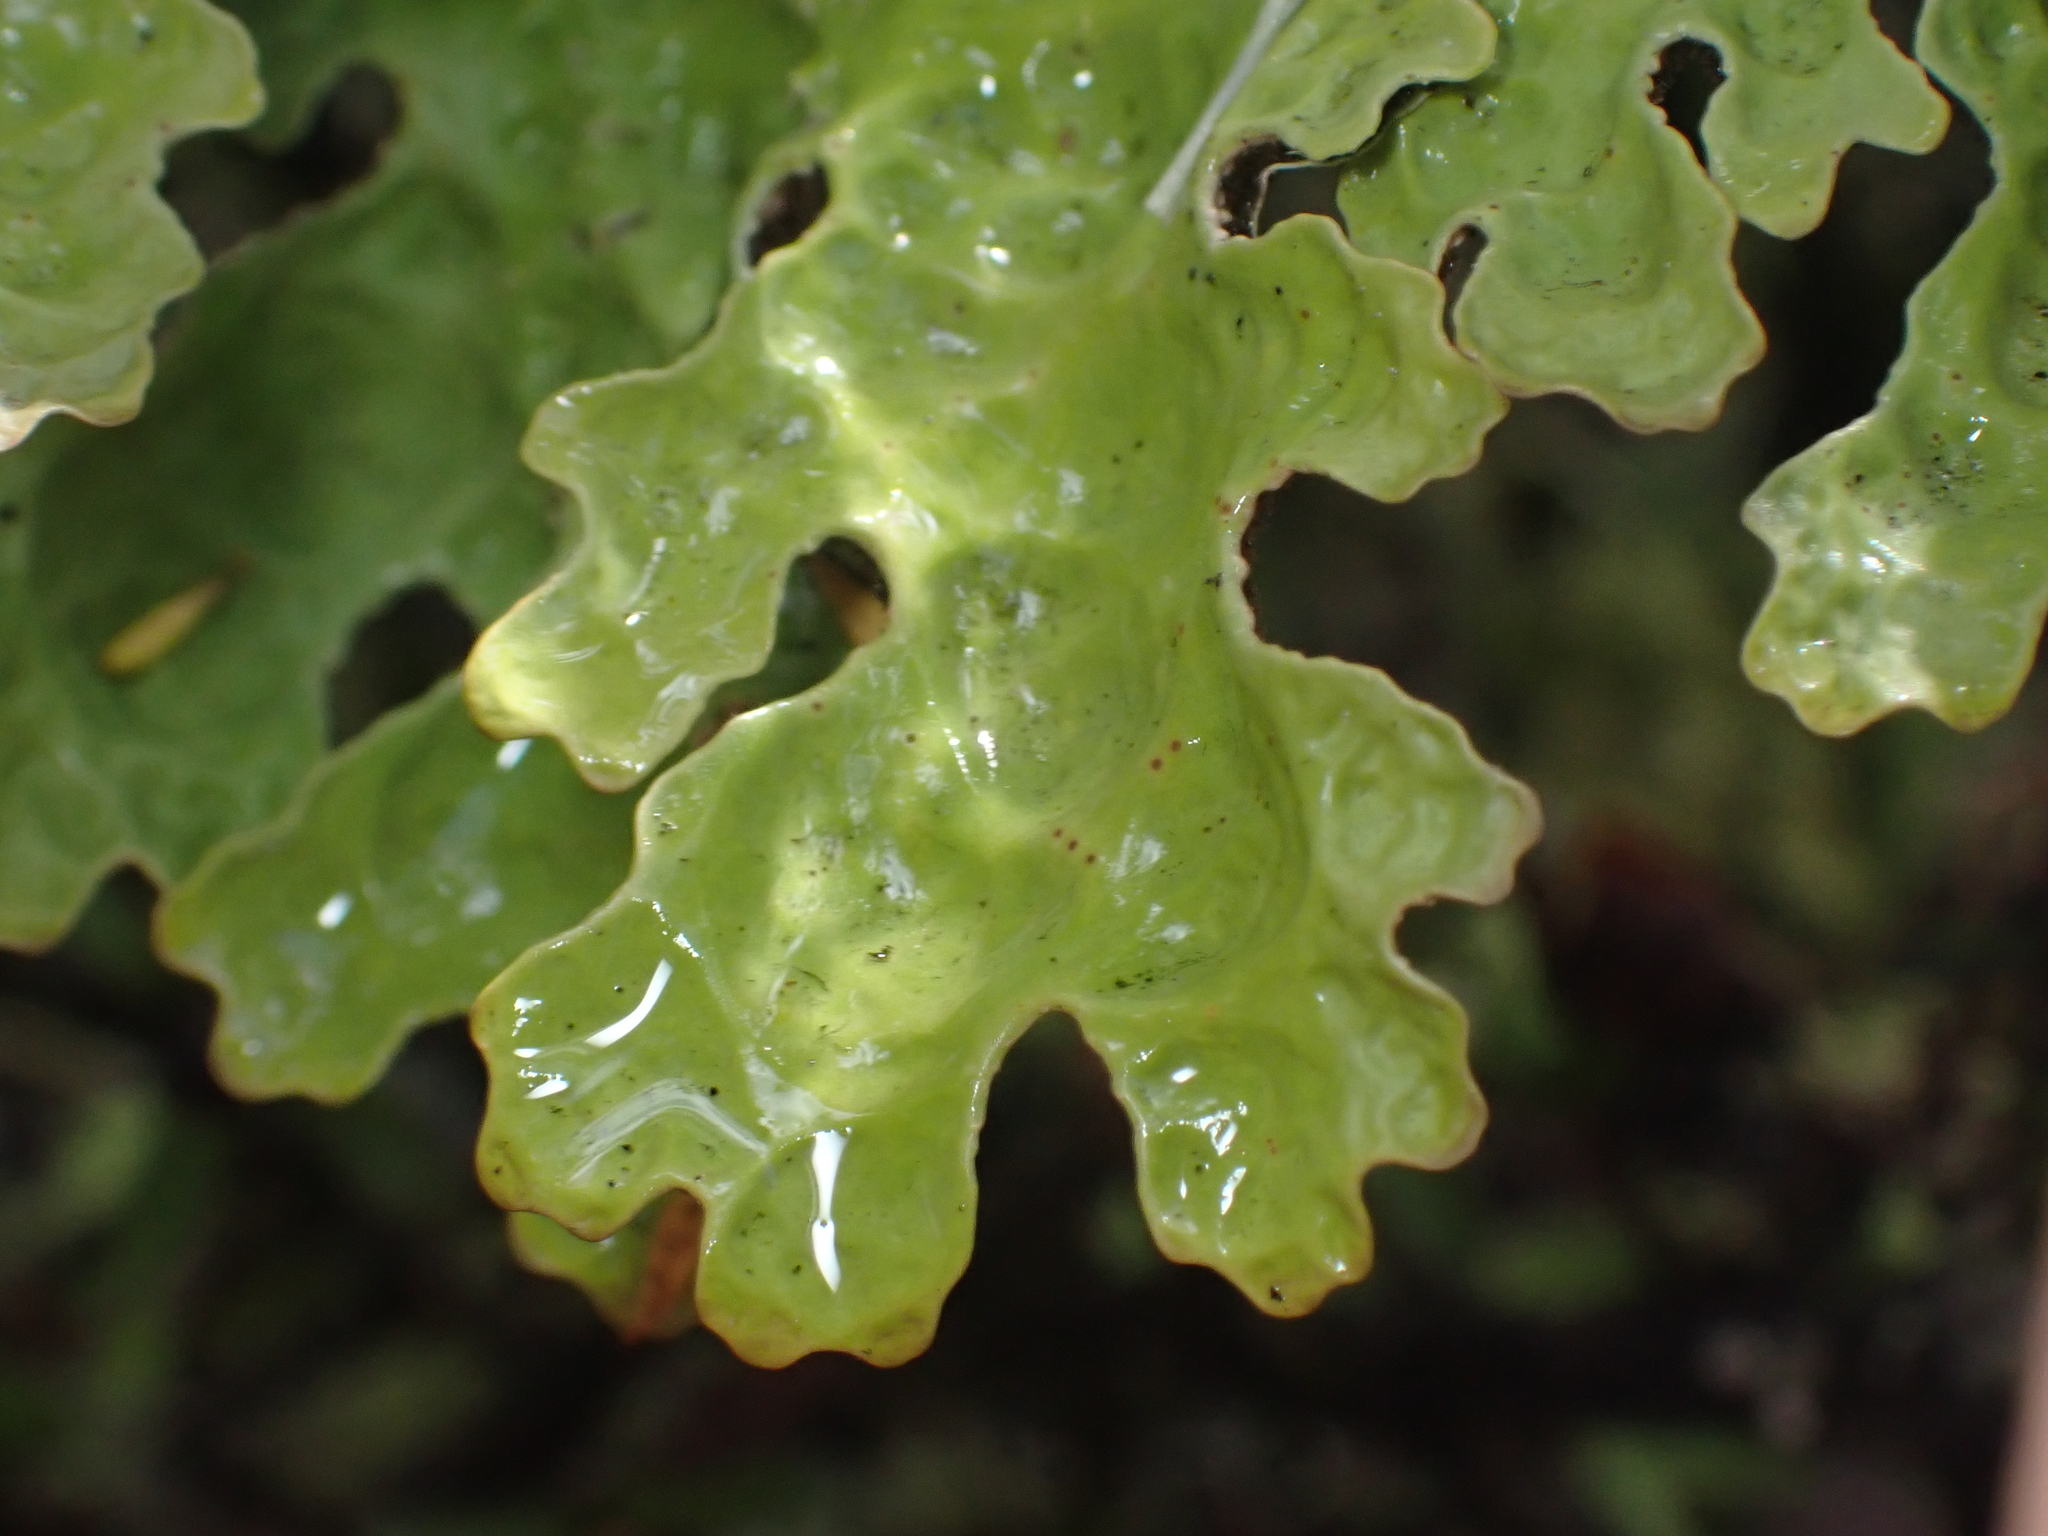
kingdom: Fungi
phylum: Ascomycota
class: Lecanoromycetes
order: Peltigerales
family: Lobariaceae
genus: Pseudocyphellaria
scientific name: Pseudocyphellaria faveolata
